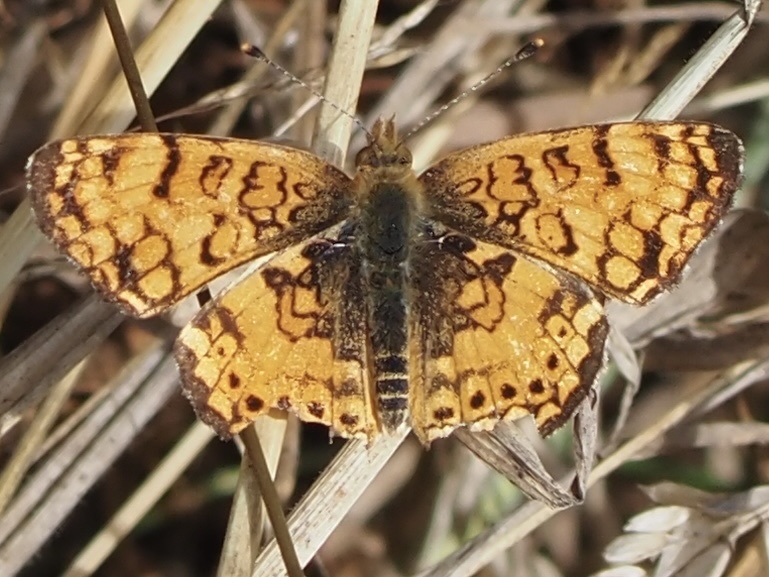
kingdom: Animalia
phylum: Arthropoda
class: Insecta
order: Lepidoptera
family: Nymphalidae
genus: Eresia
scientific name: Eresia aveyrona
